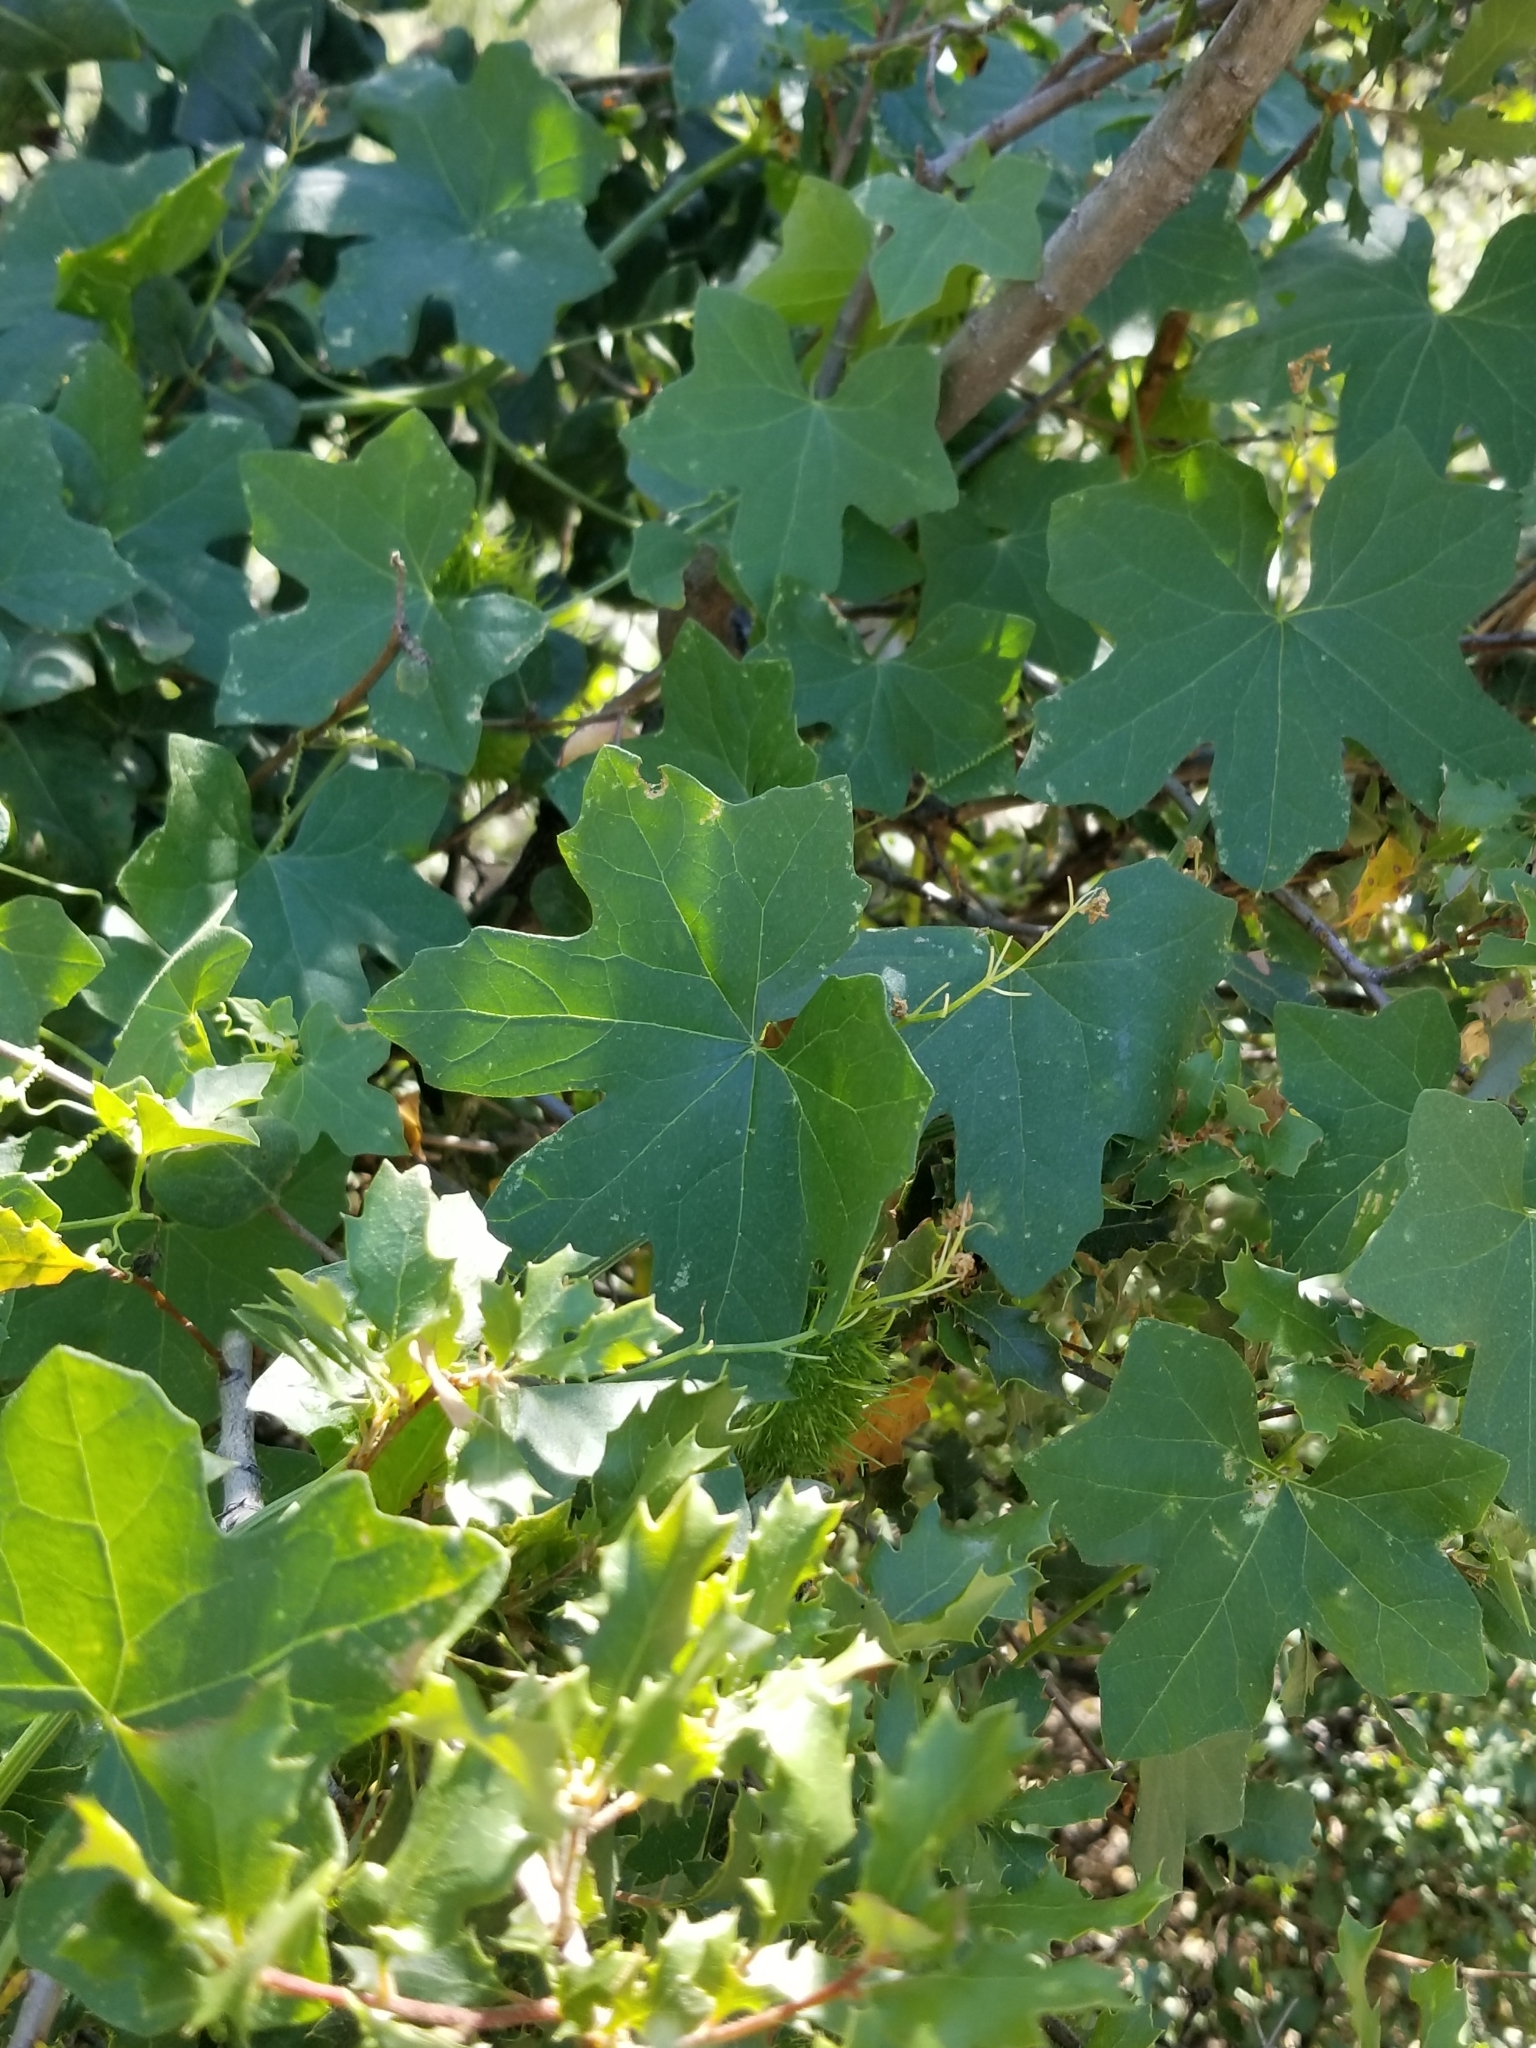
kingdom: Plantae
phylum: Tracheophyta
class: Magnoliopsida
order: Cucurbitales
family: Cucurbitaceae
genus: Marah
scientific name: Marah macrocarpa
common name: Cucamonga manroot
